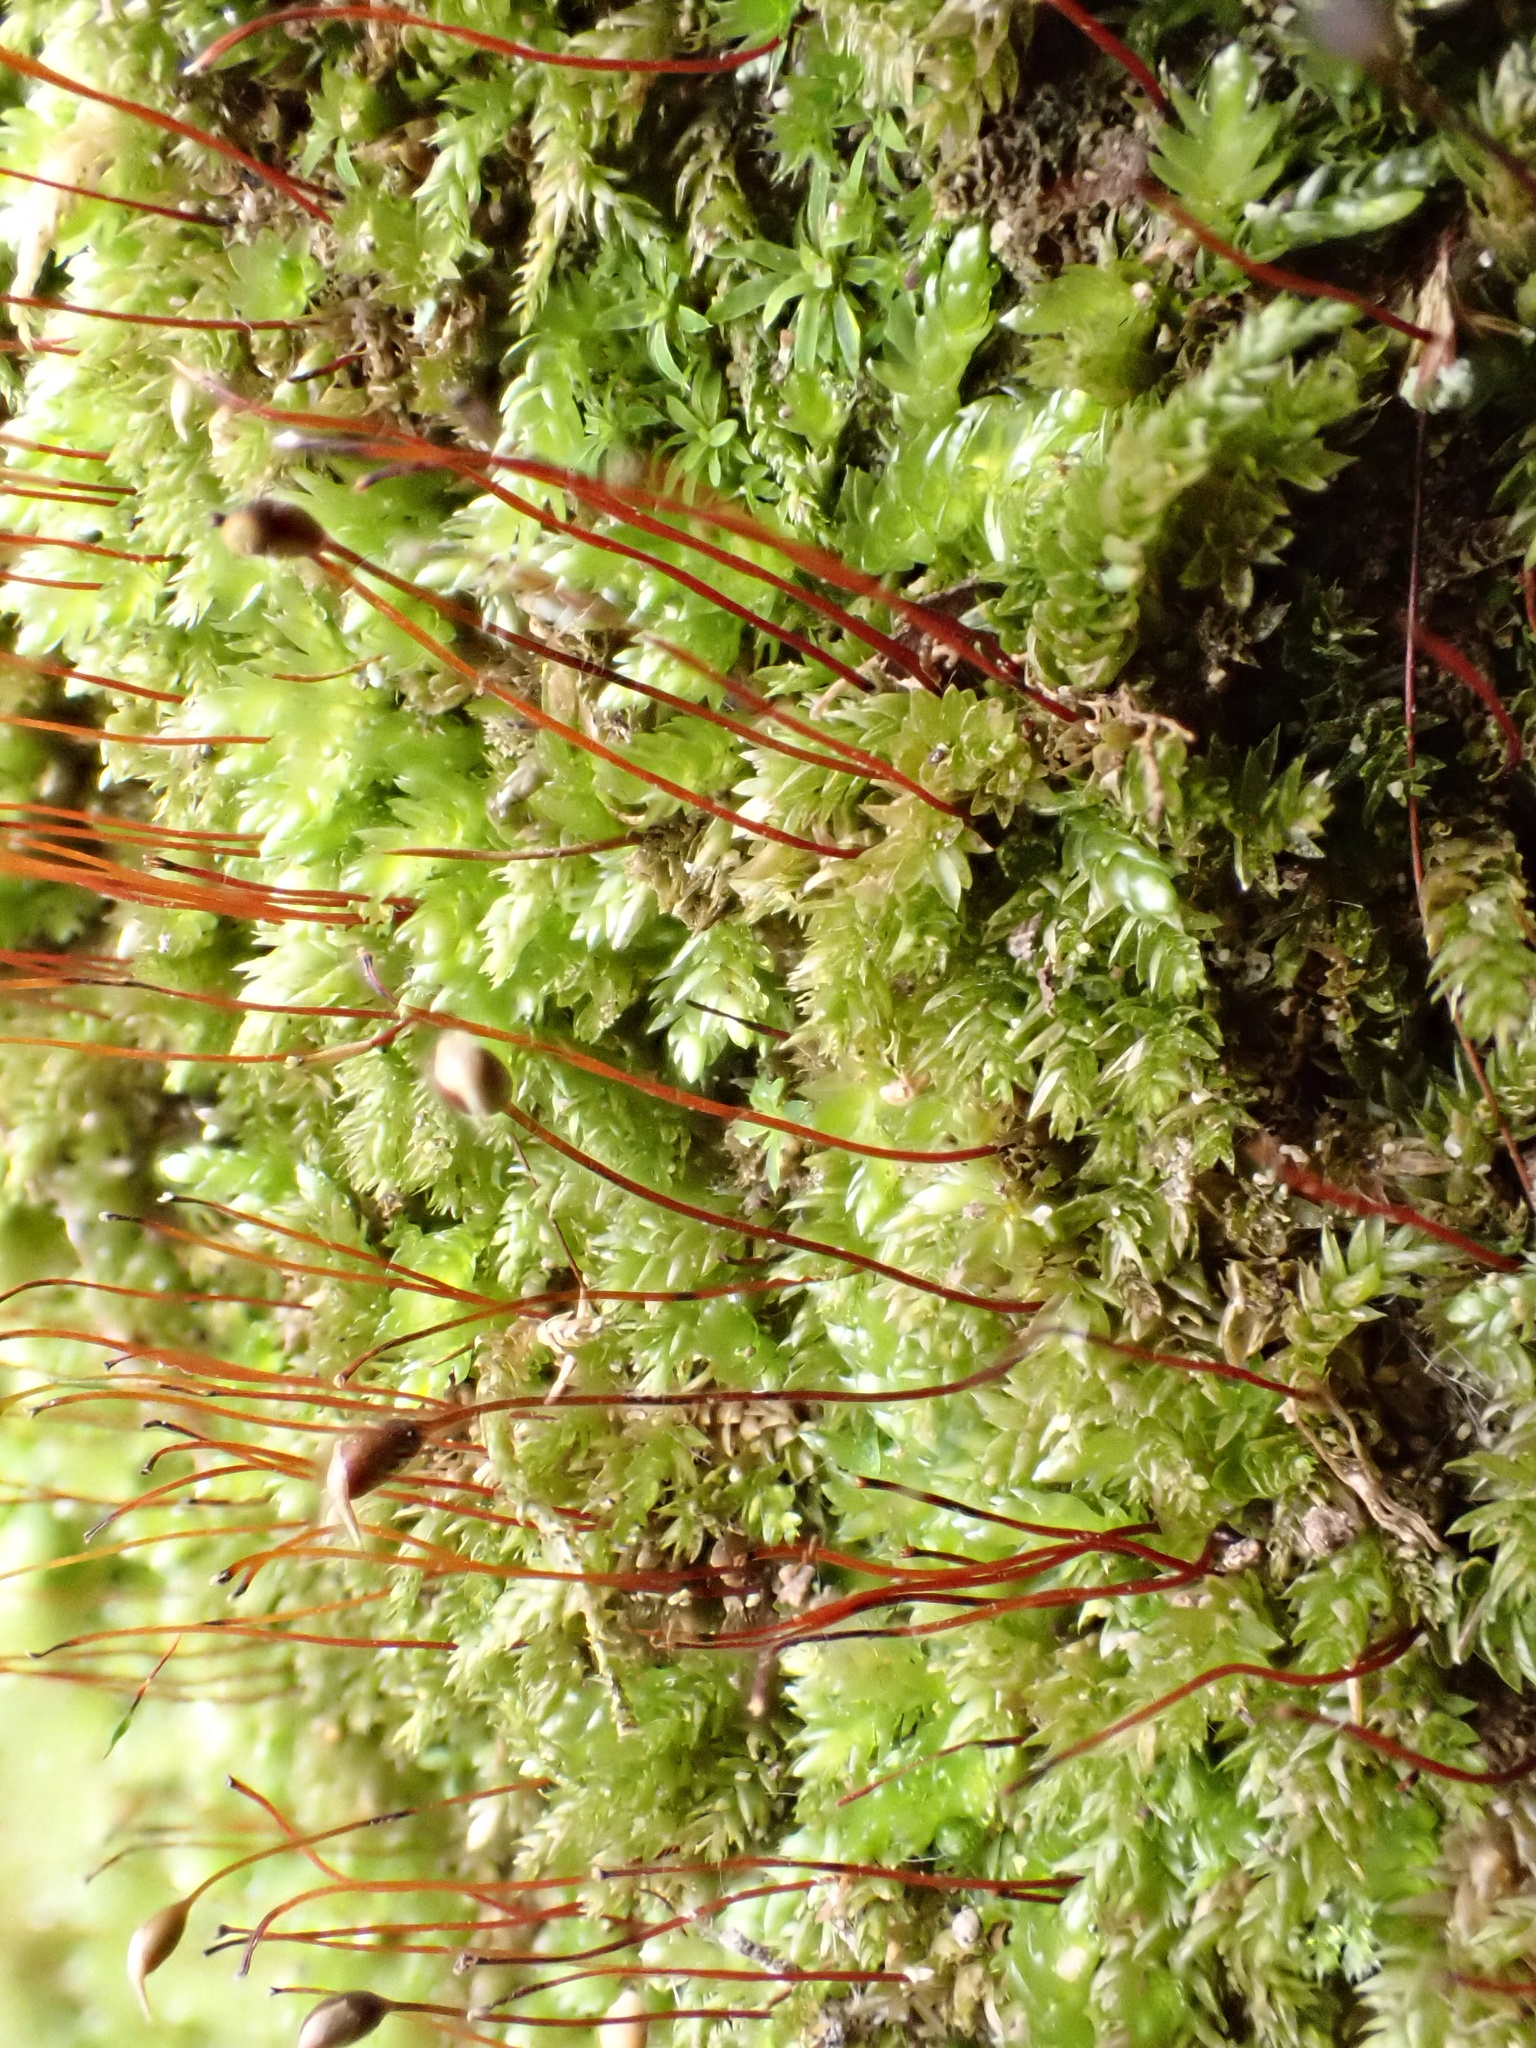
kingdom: Plantae
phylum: Bryophyta
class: Bryopsida
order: Hypnales
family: Brachytheciaceae
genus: Rhynchostegium
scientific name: Rhynchostegium murale
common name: Wall feather-moss
